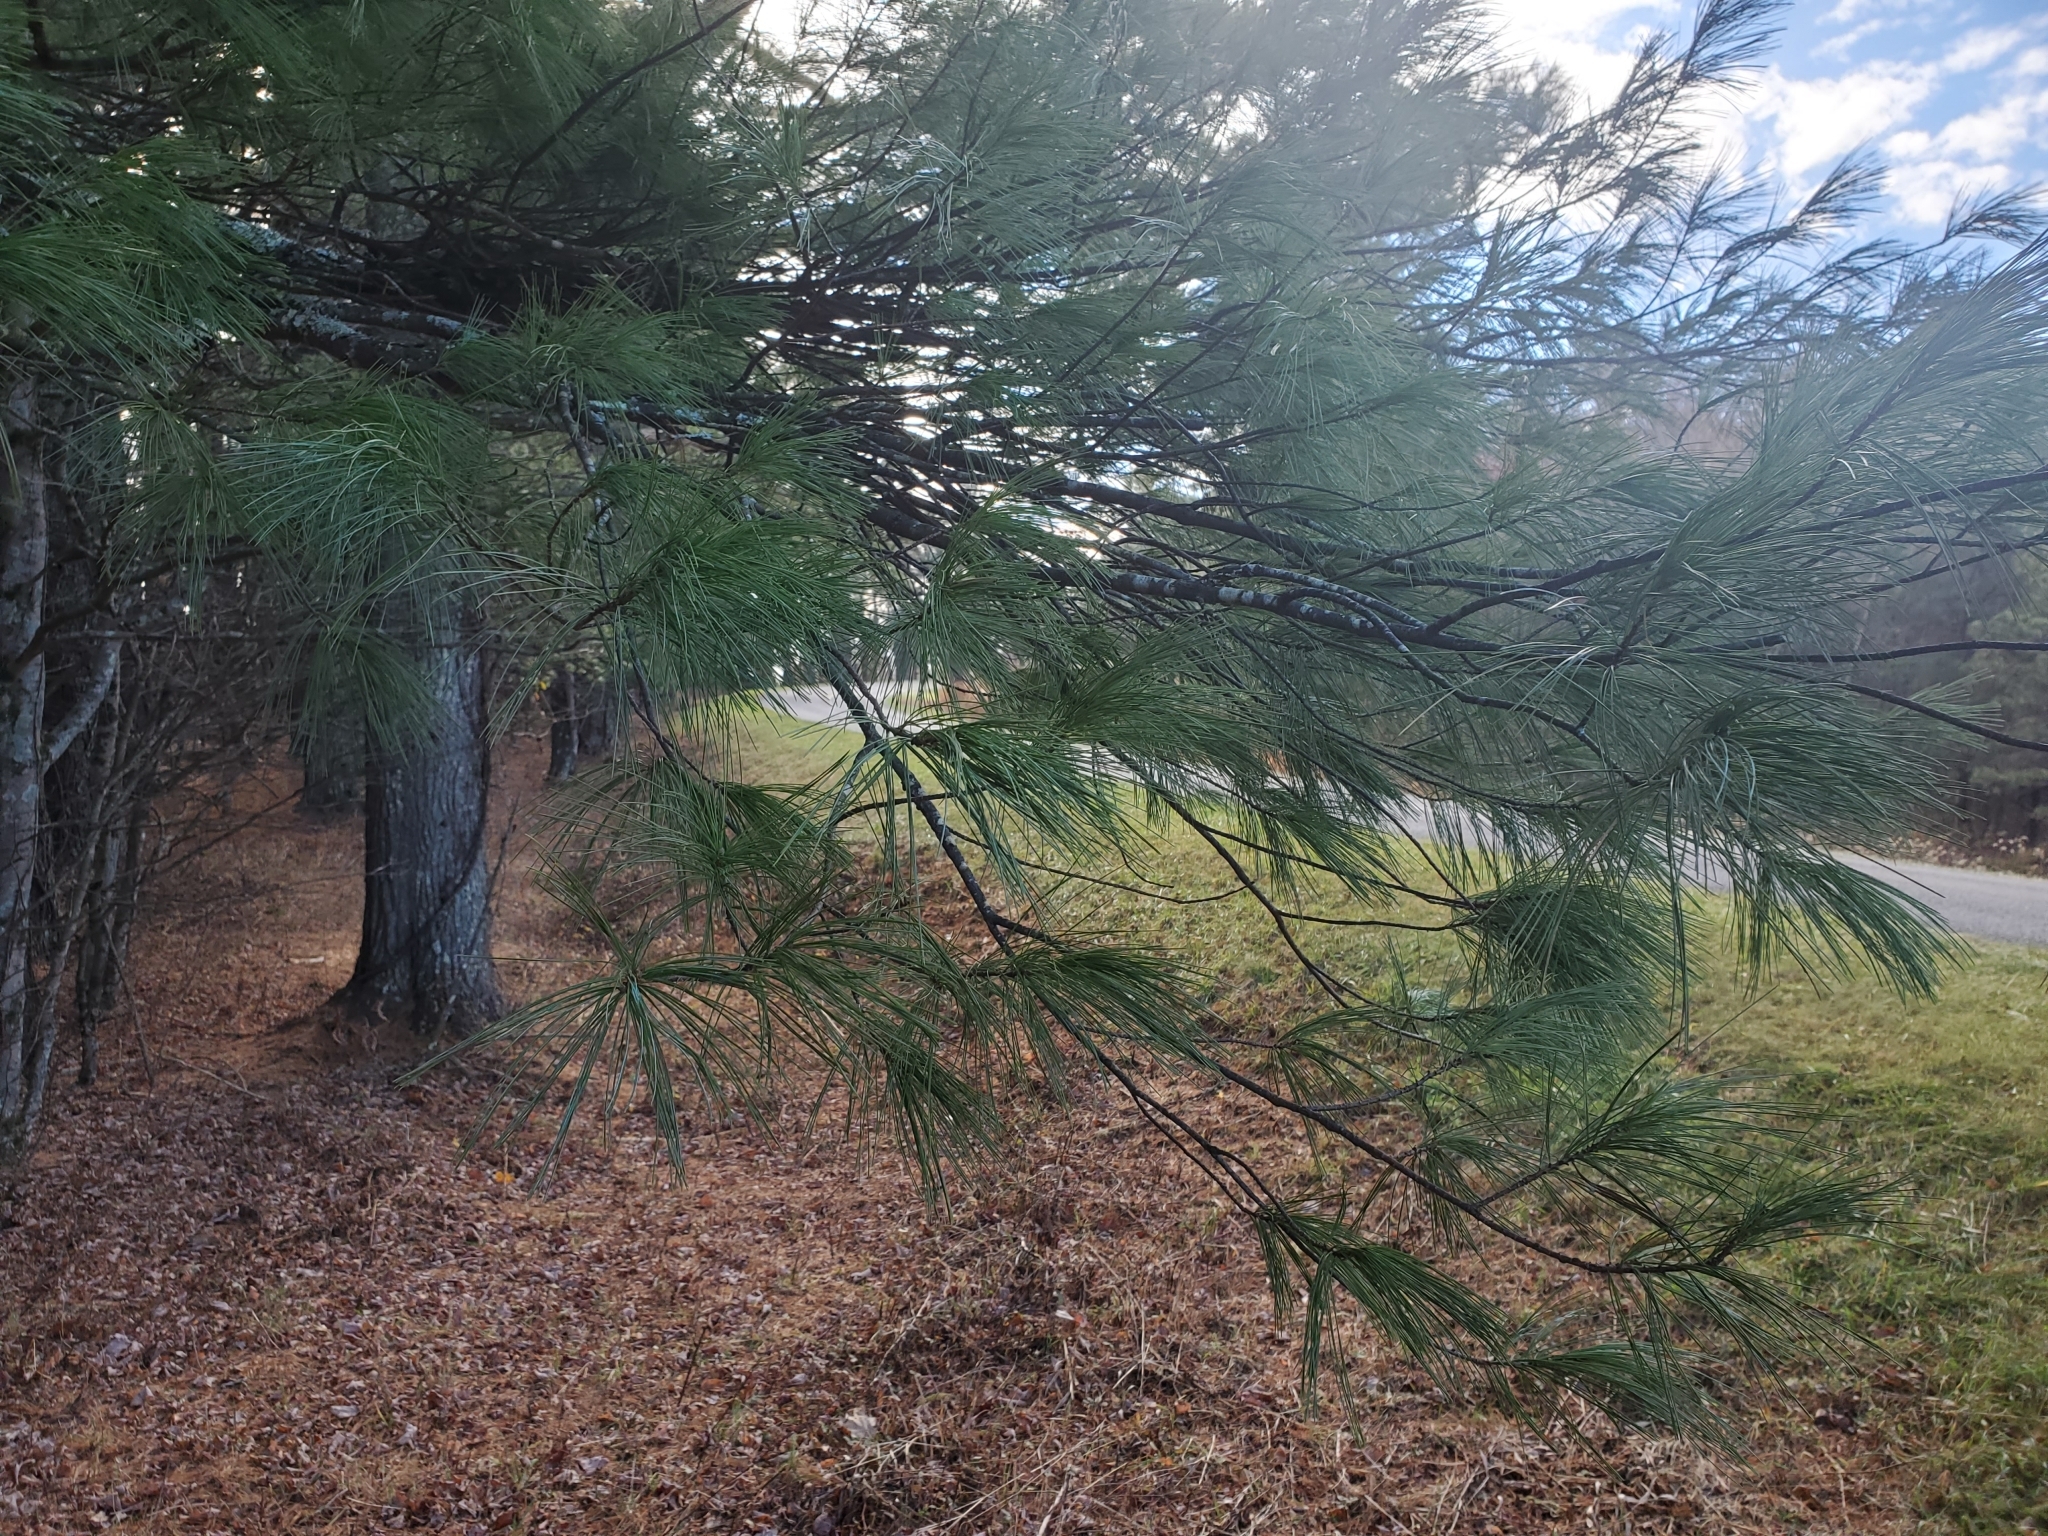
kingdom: Plantae
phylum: Tracheophyta
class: Pinopsida
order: Pinales
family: Pinaceae
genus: Pinus
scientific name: Pinus strobus
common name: Weymouth pine
